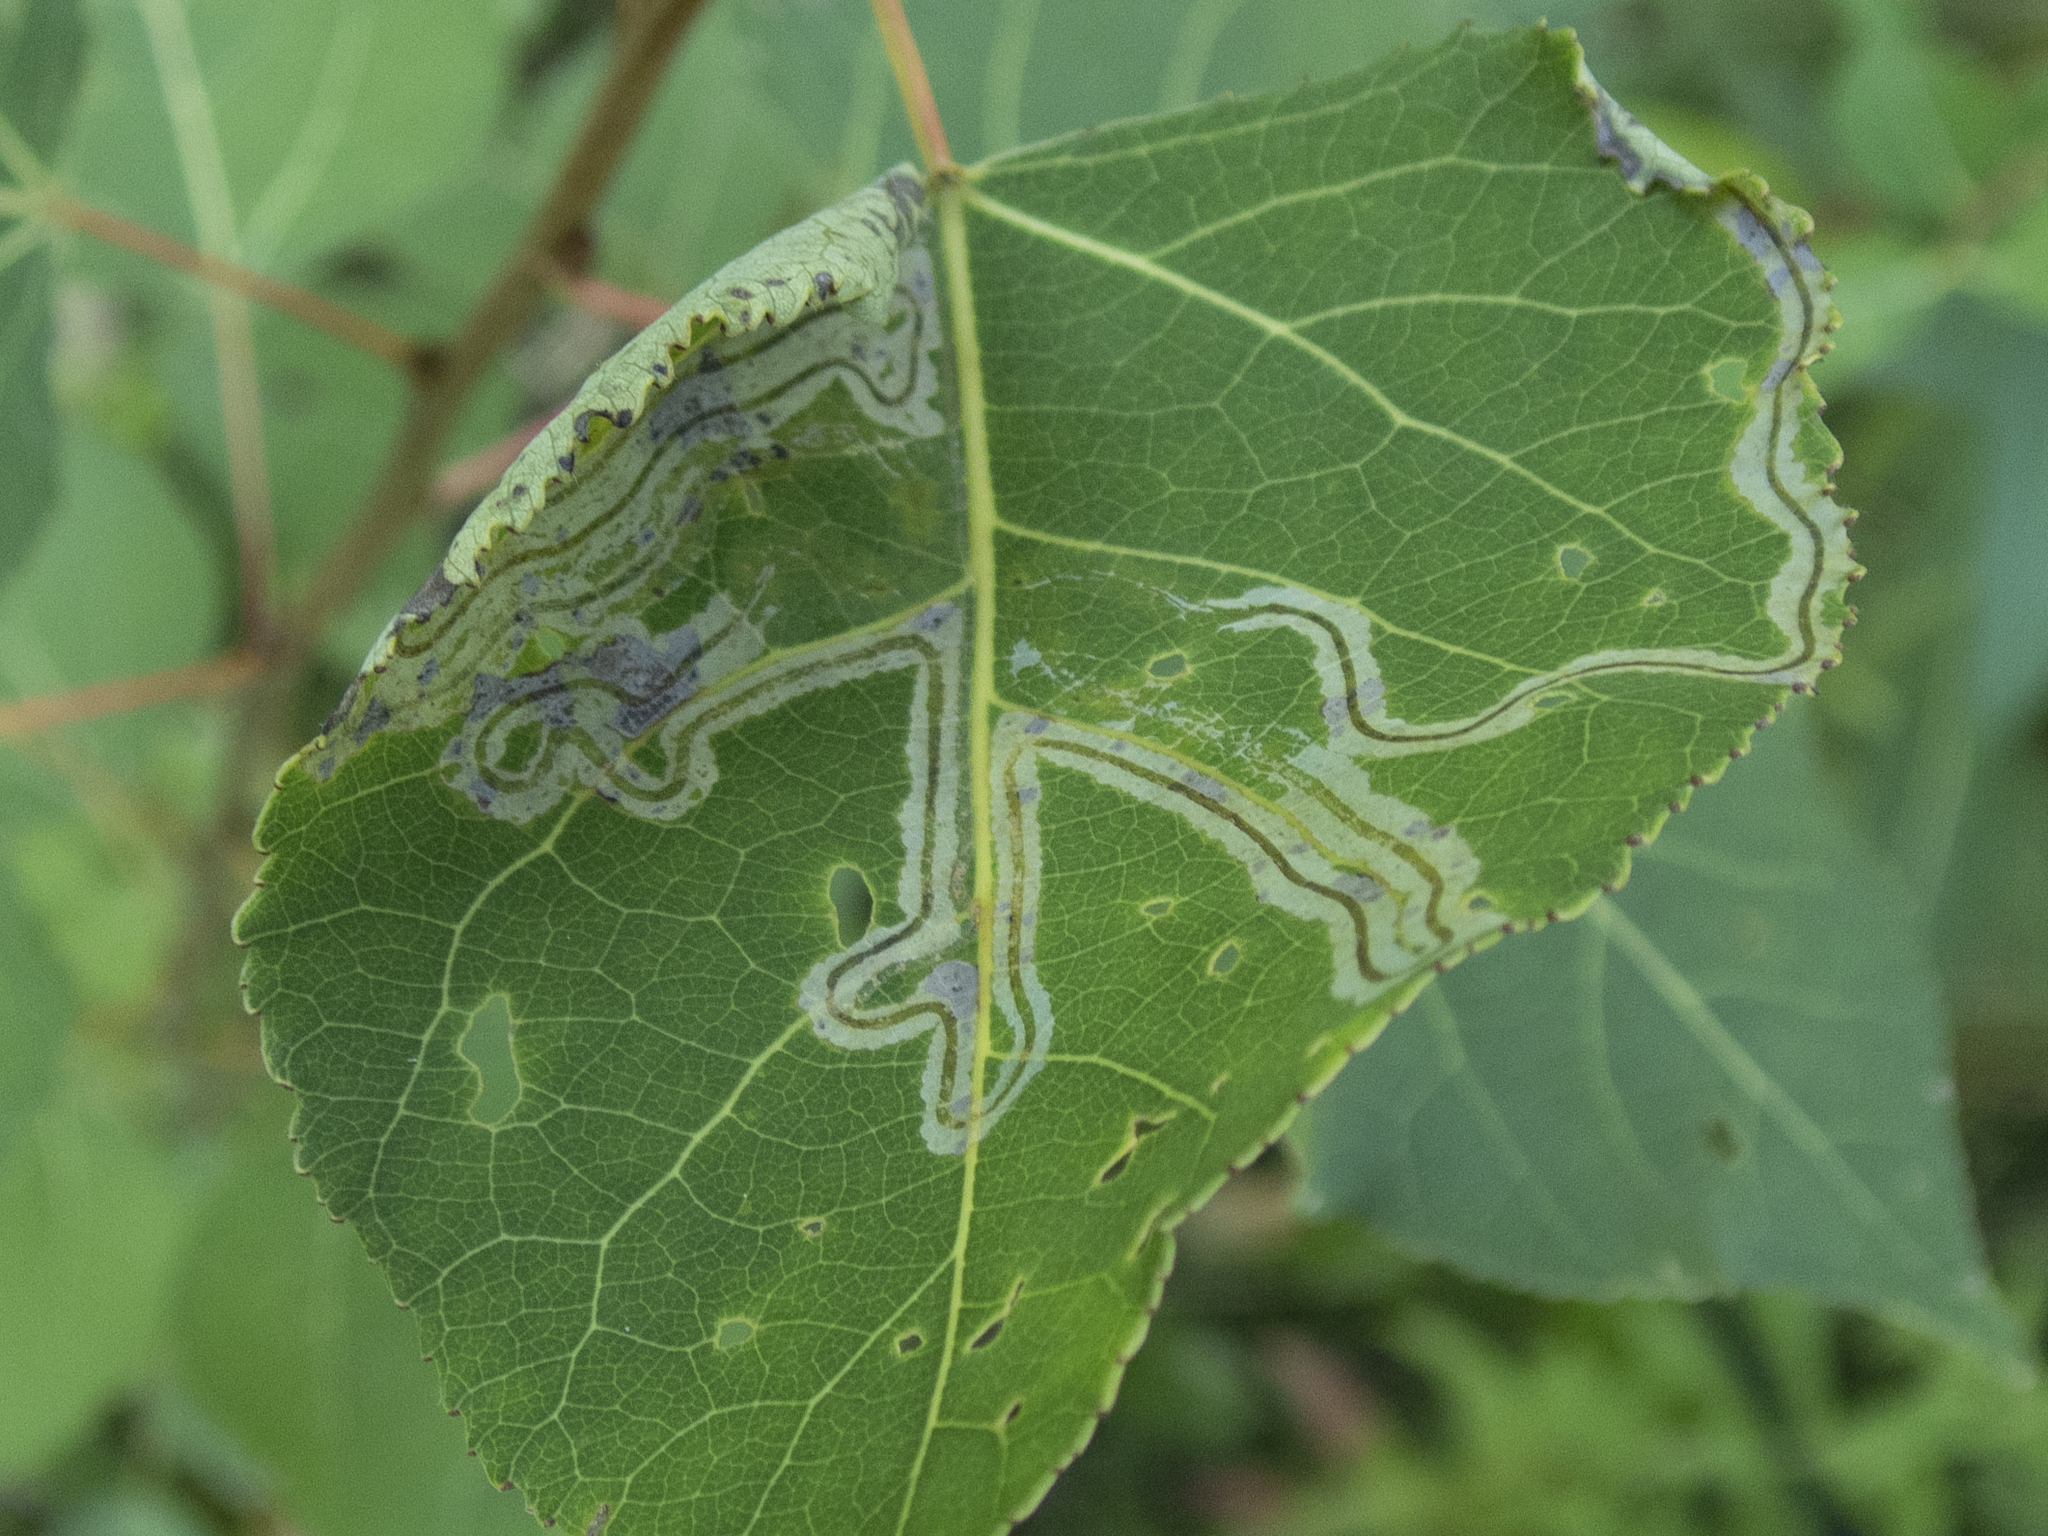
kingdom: Animalia
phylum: Arthropoda
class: Insecta
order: Lepidoptera
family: Gracillariidae
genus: Phyllocnistis
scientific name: Phyllocnistis populiella
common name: Aspen serpentine leafminer moth
